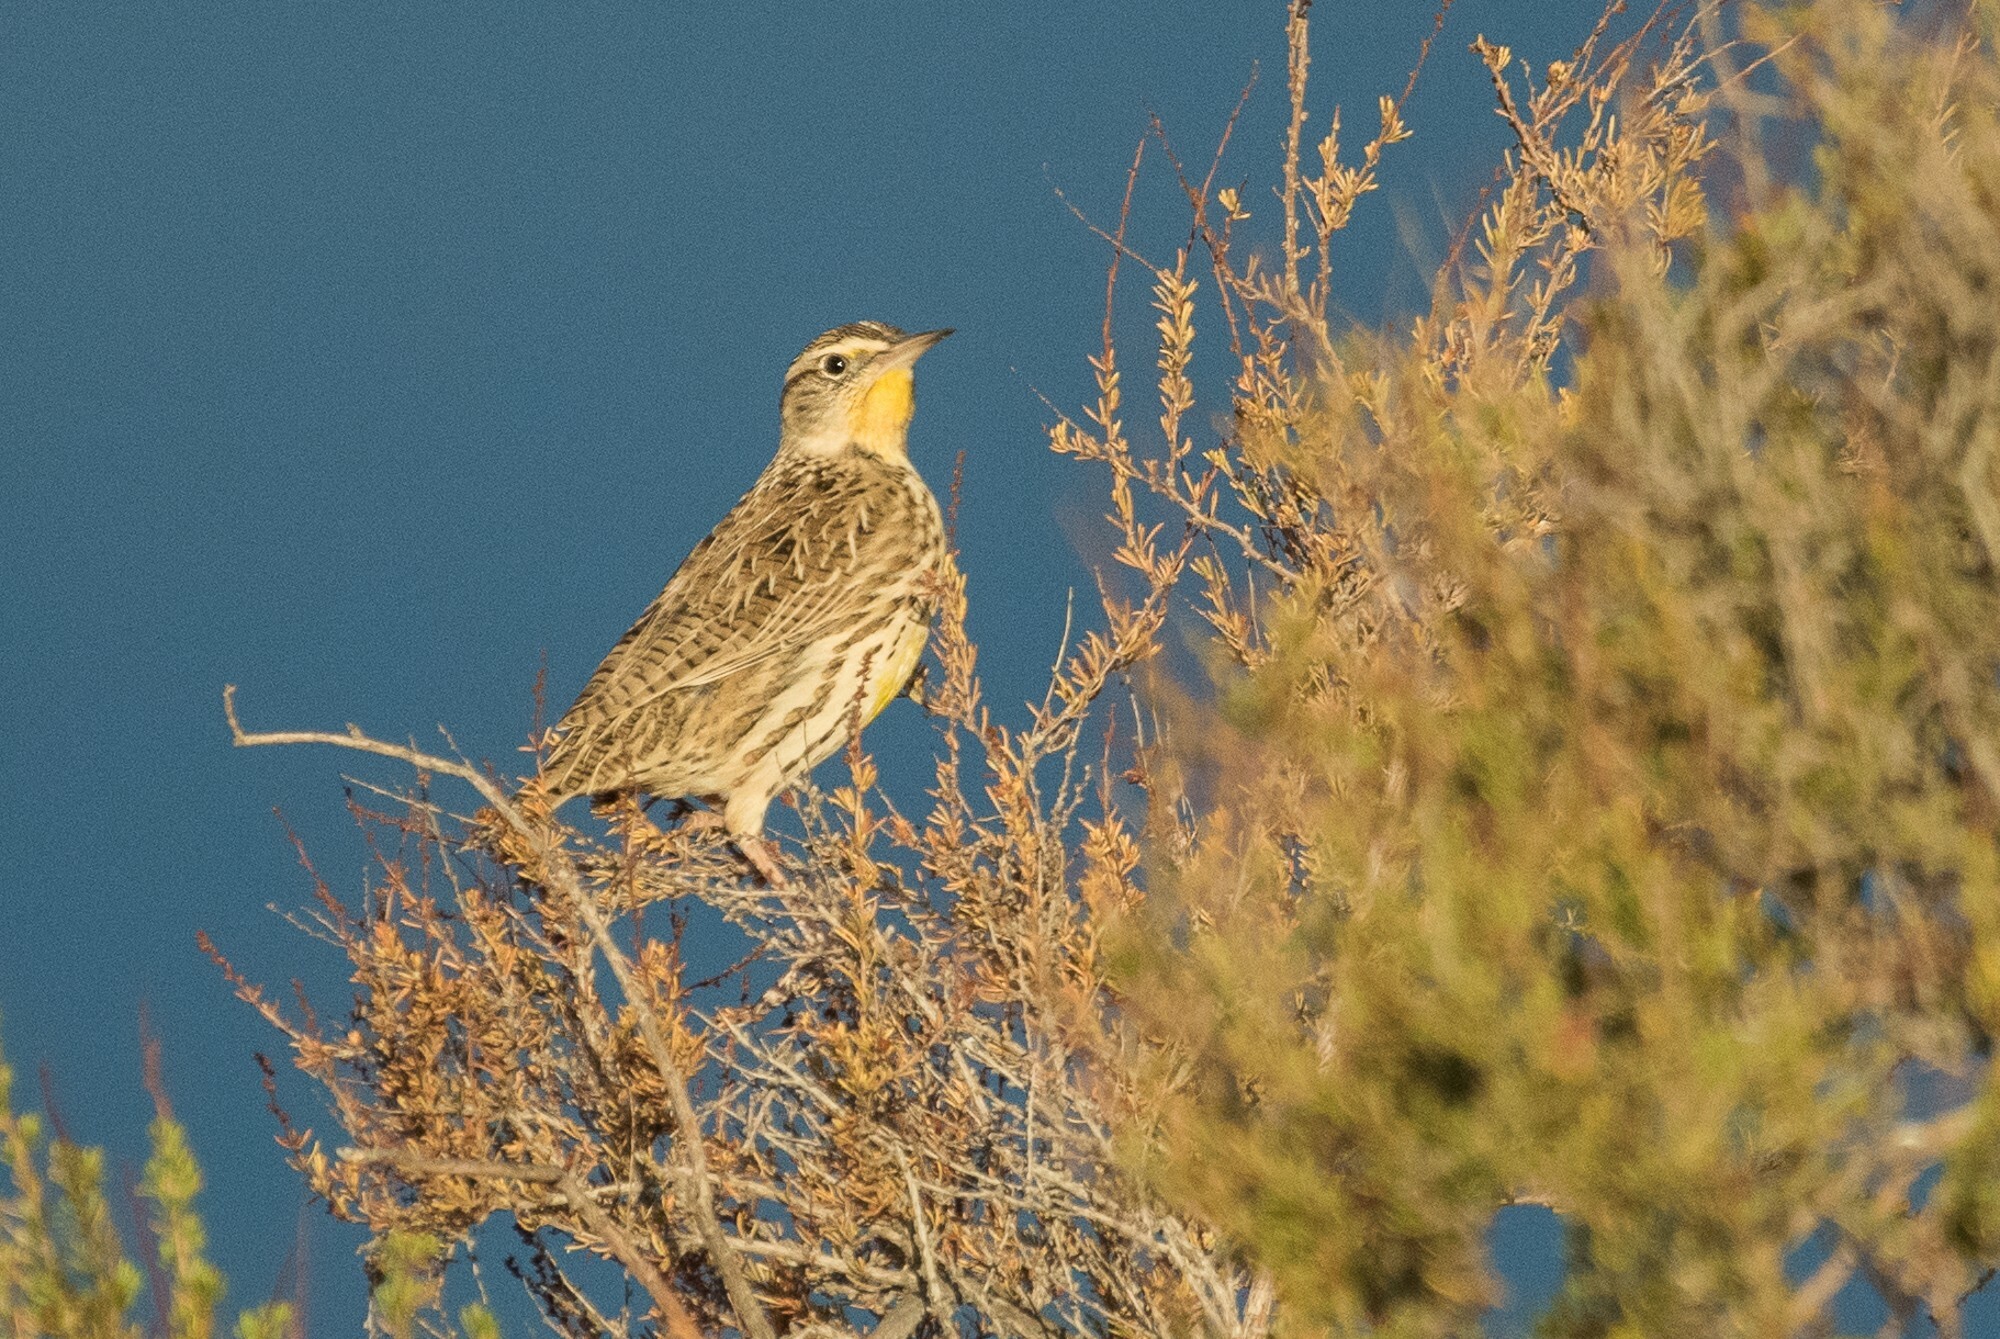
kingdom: Animalia
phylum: Chordata
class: Aves
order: Passeriformes
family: Icteridae
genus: Sturnella
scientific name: Sturnella neglecta
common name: Western meadowlark
